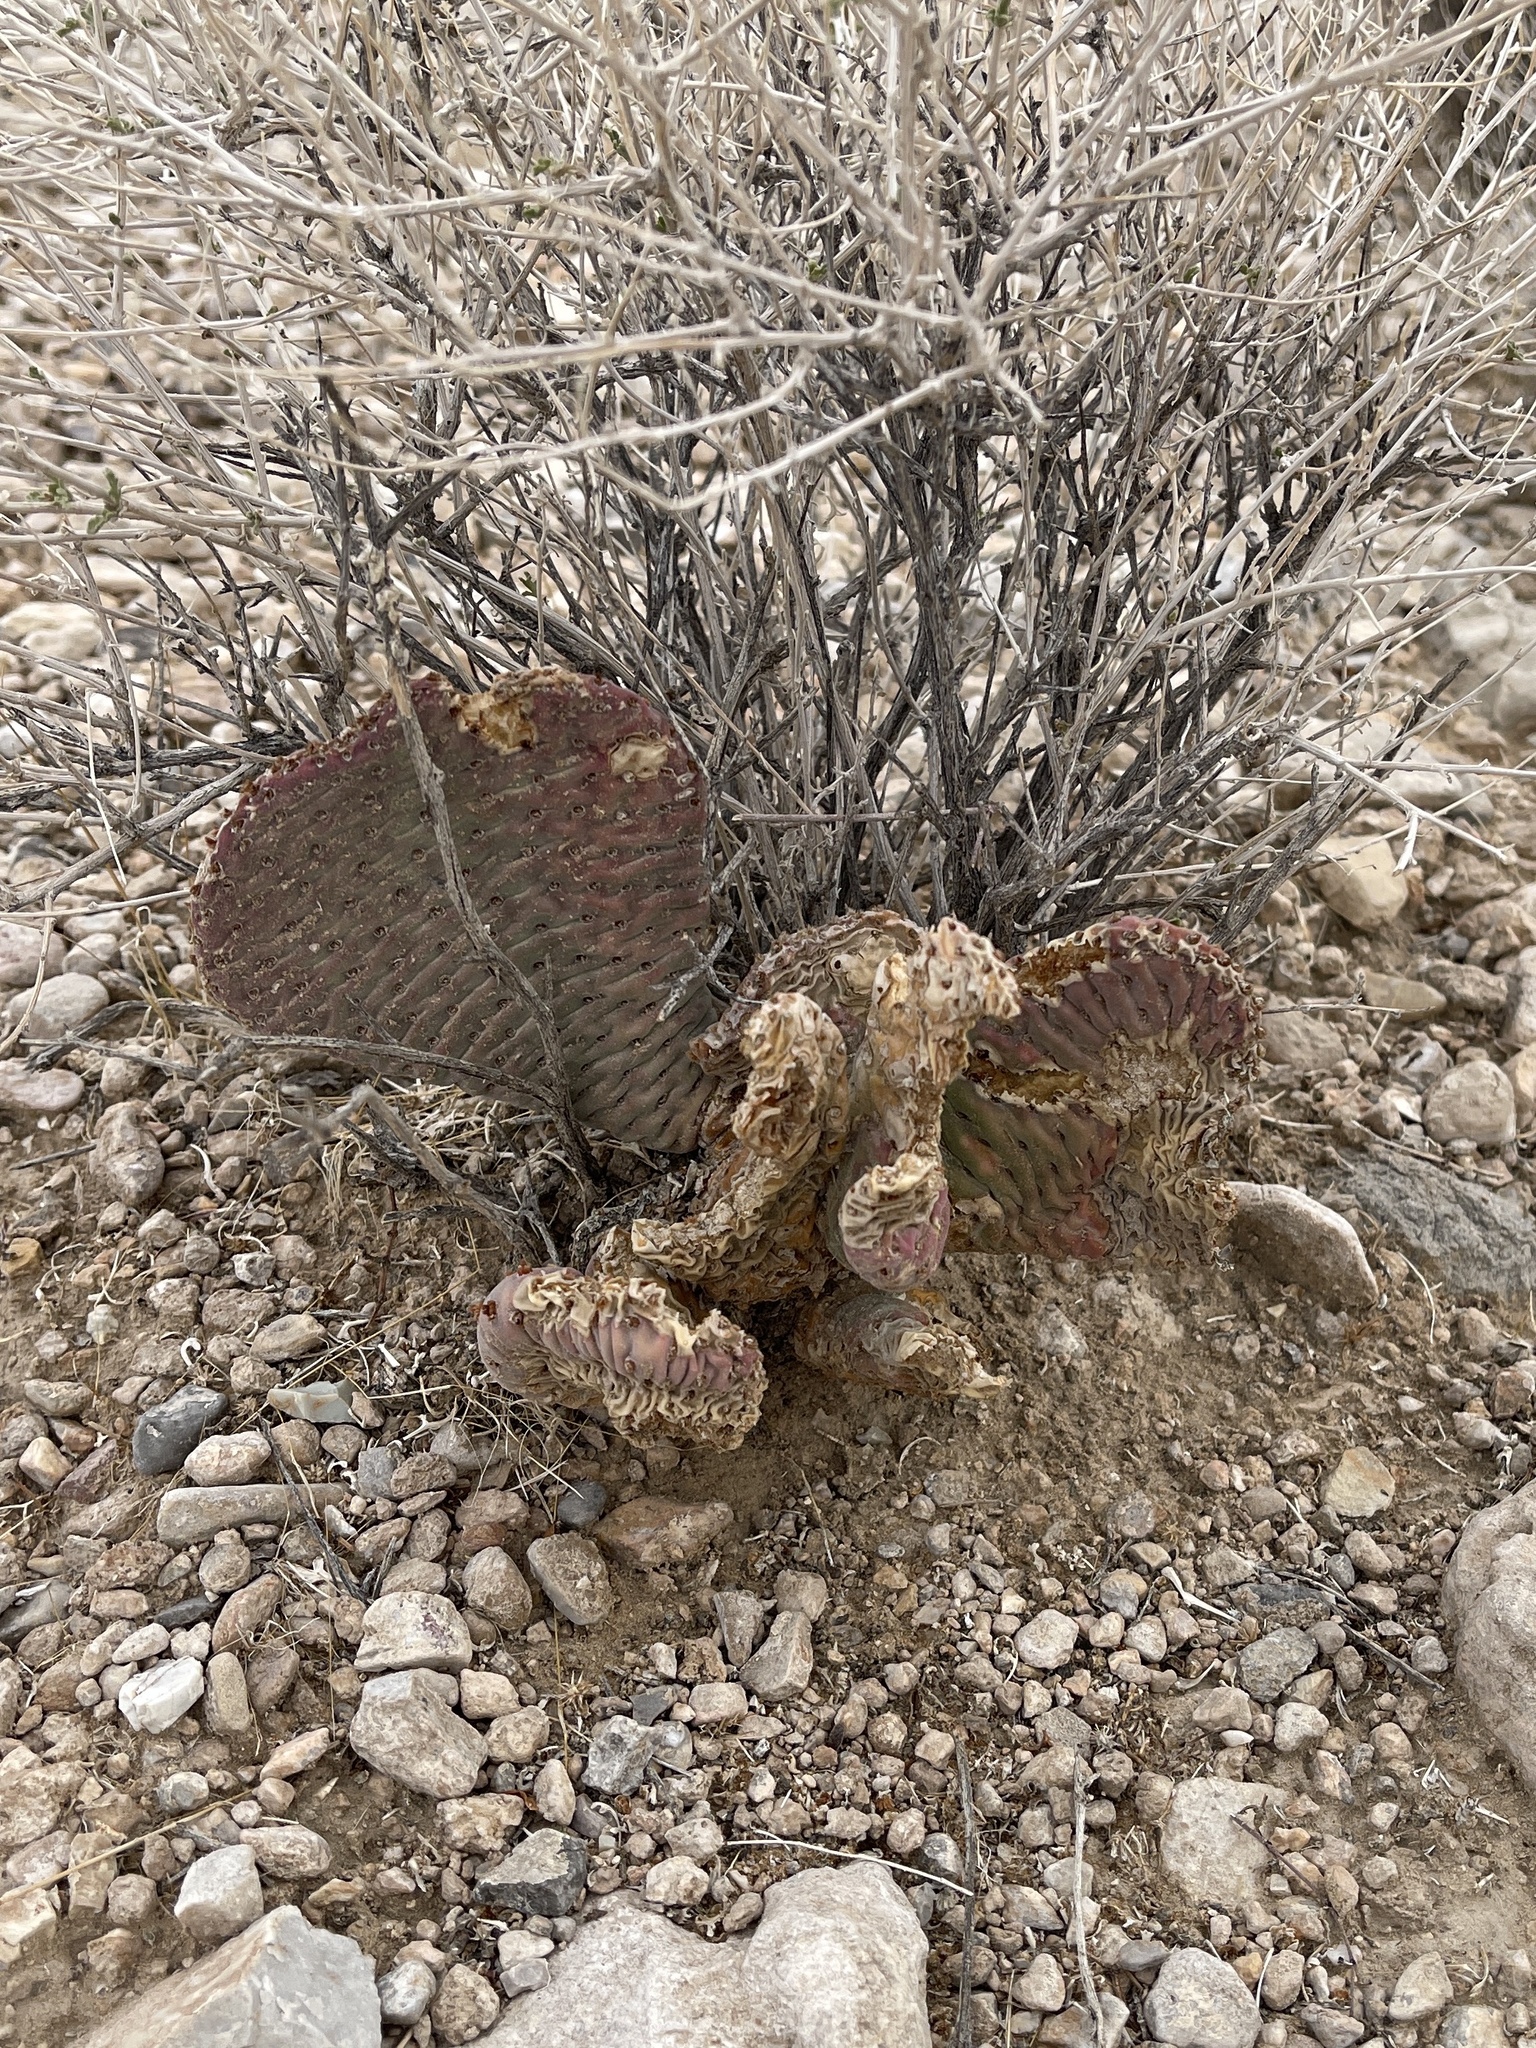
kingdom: Plantae
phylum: Tracheophyta
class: Magnoliopsida
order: Caryophyllales
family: Cactaceae
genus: Opuntia
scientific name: Opuntia basilaris
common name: Beavertail prickly-pear
